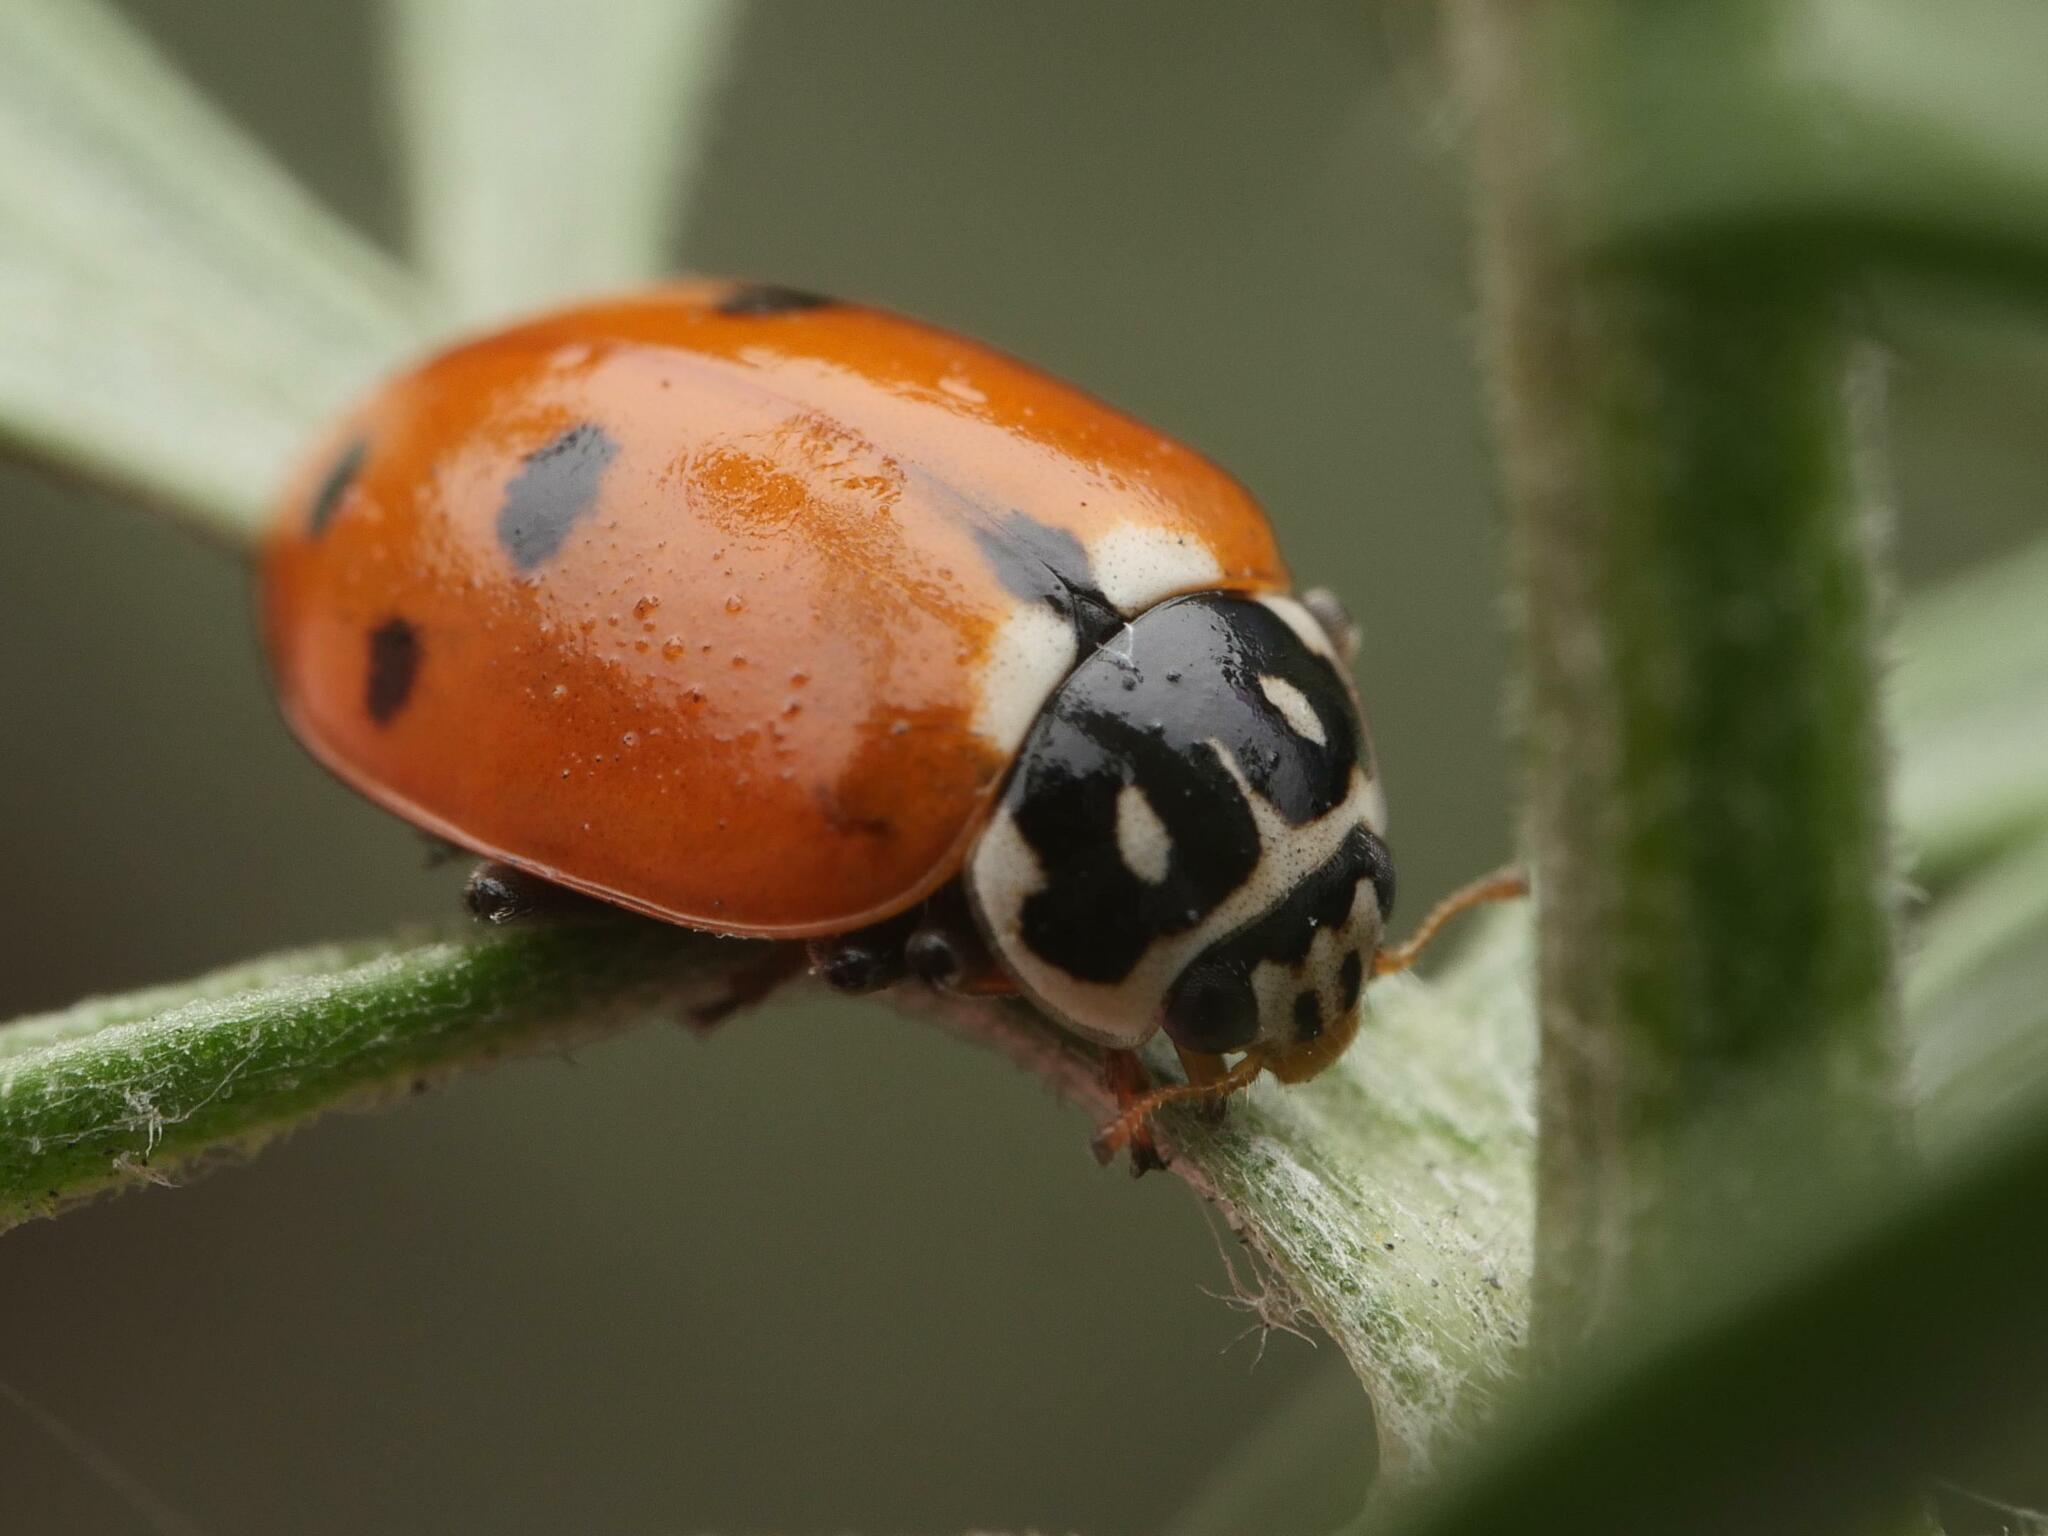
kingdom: Animalia
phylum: Arthropoda
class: Insecta
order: Coleoptera
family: Coccinellidae
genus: Hippodamia
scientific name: Hippodamia variegata
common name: Ladybird beetle
